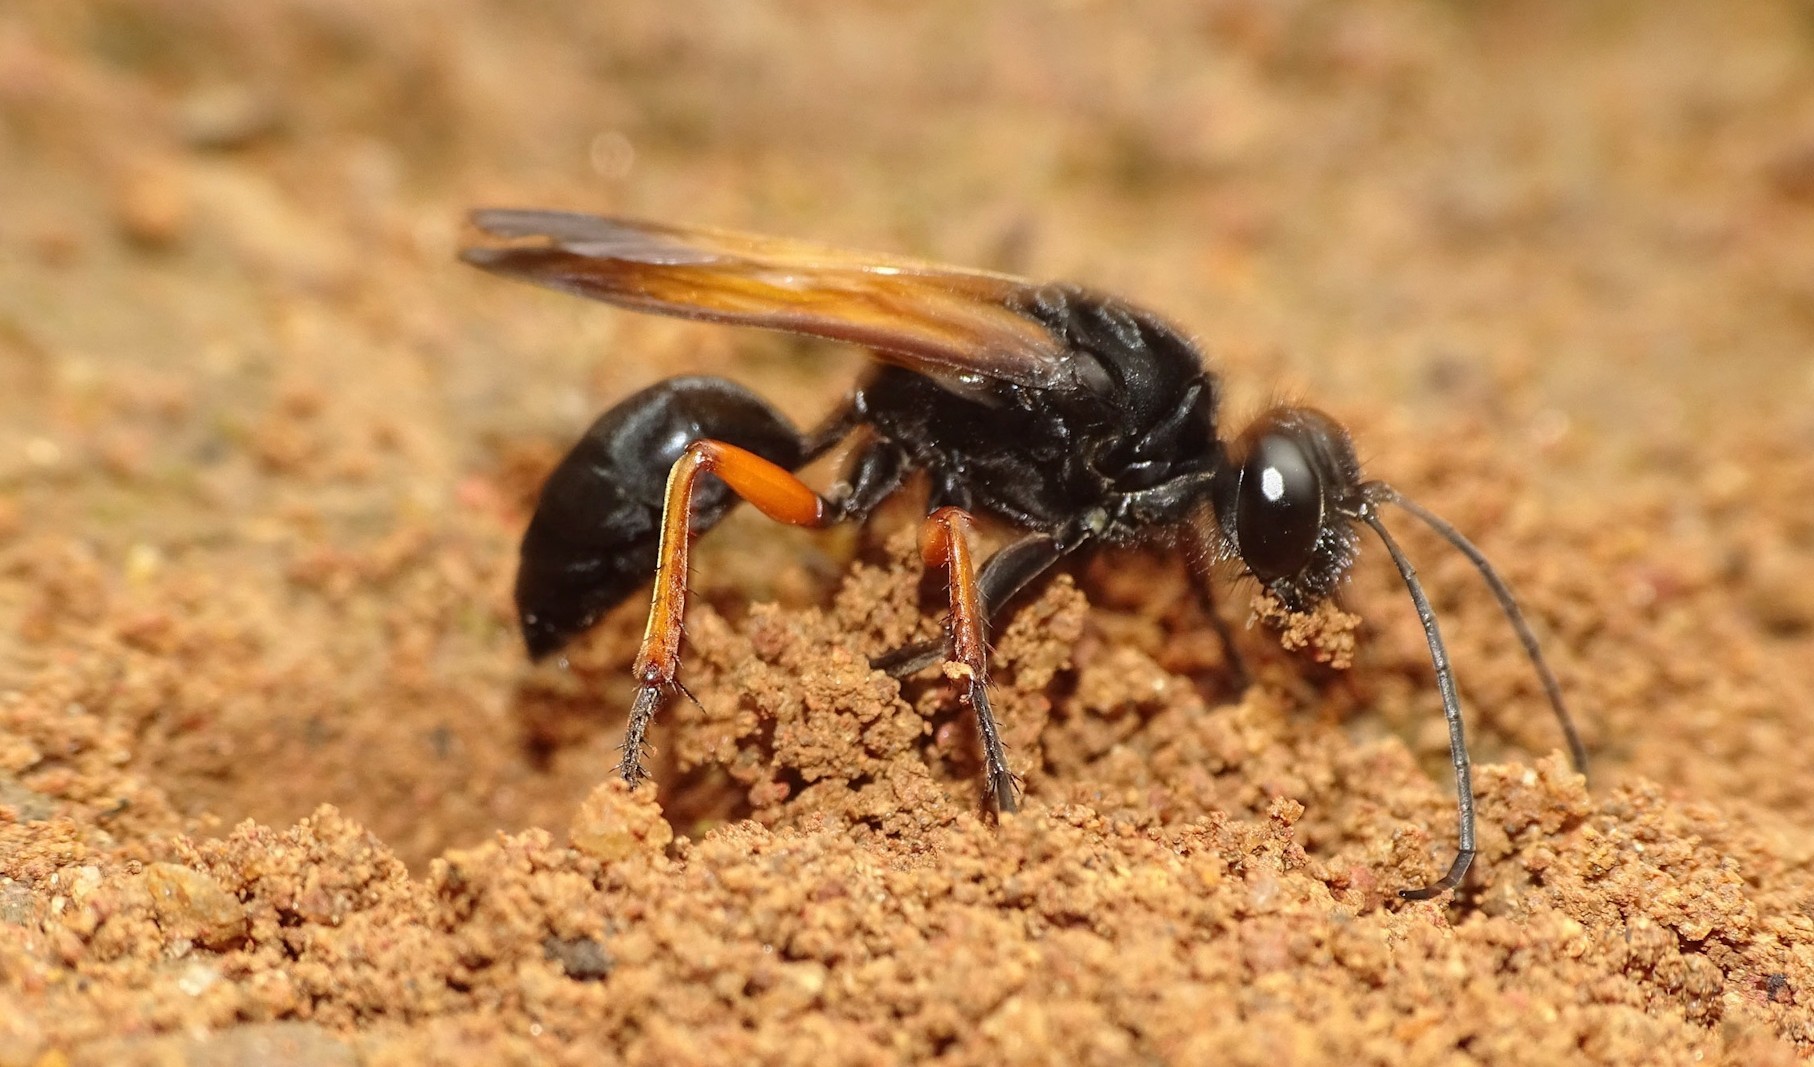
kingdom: Animalia
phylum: Arthropoda
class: Insecta
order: Hymenoptera
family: Sphecidae
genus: Sphex
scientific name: Sphex subtruncatus
